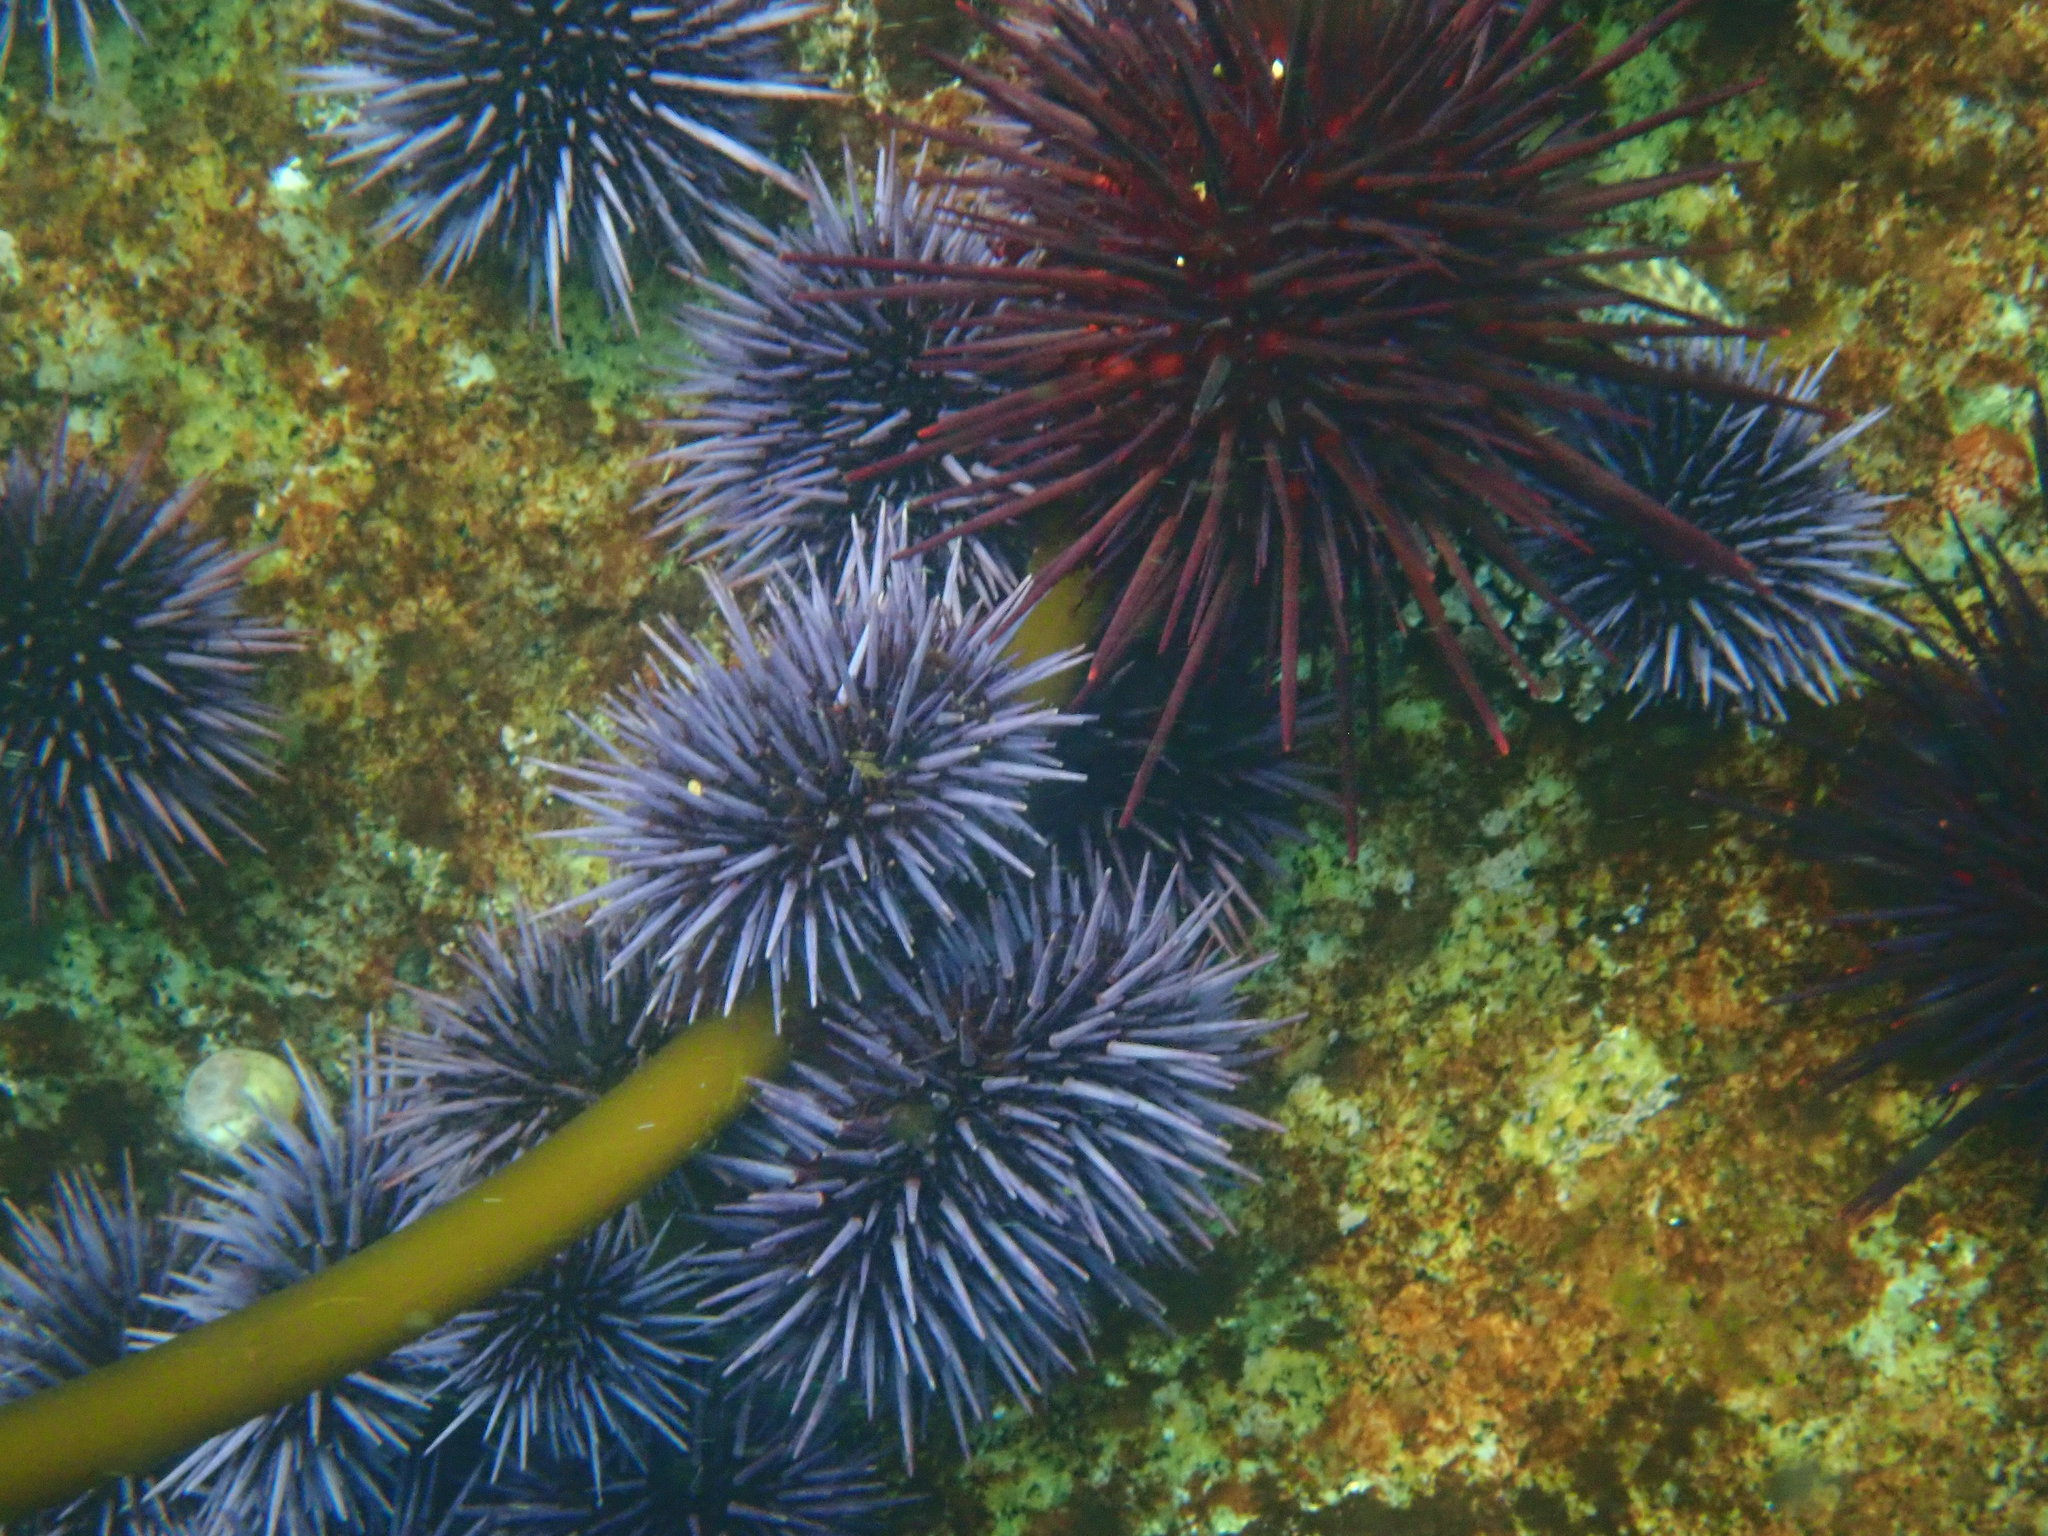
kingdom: Animalia
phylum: Echinodermata
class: Echinoidea
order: Camarodonta
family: Strongylocentrotidae
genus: Strongylocentrotus
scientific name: Strongylocentrotus purpuratus
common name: Purple sea urchin
